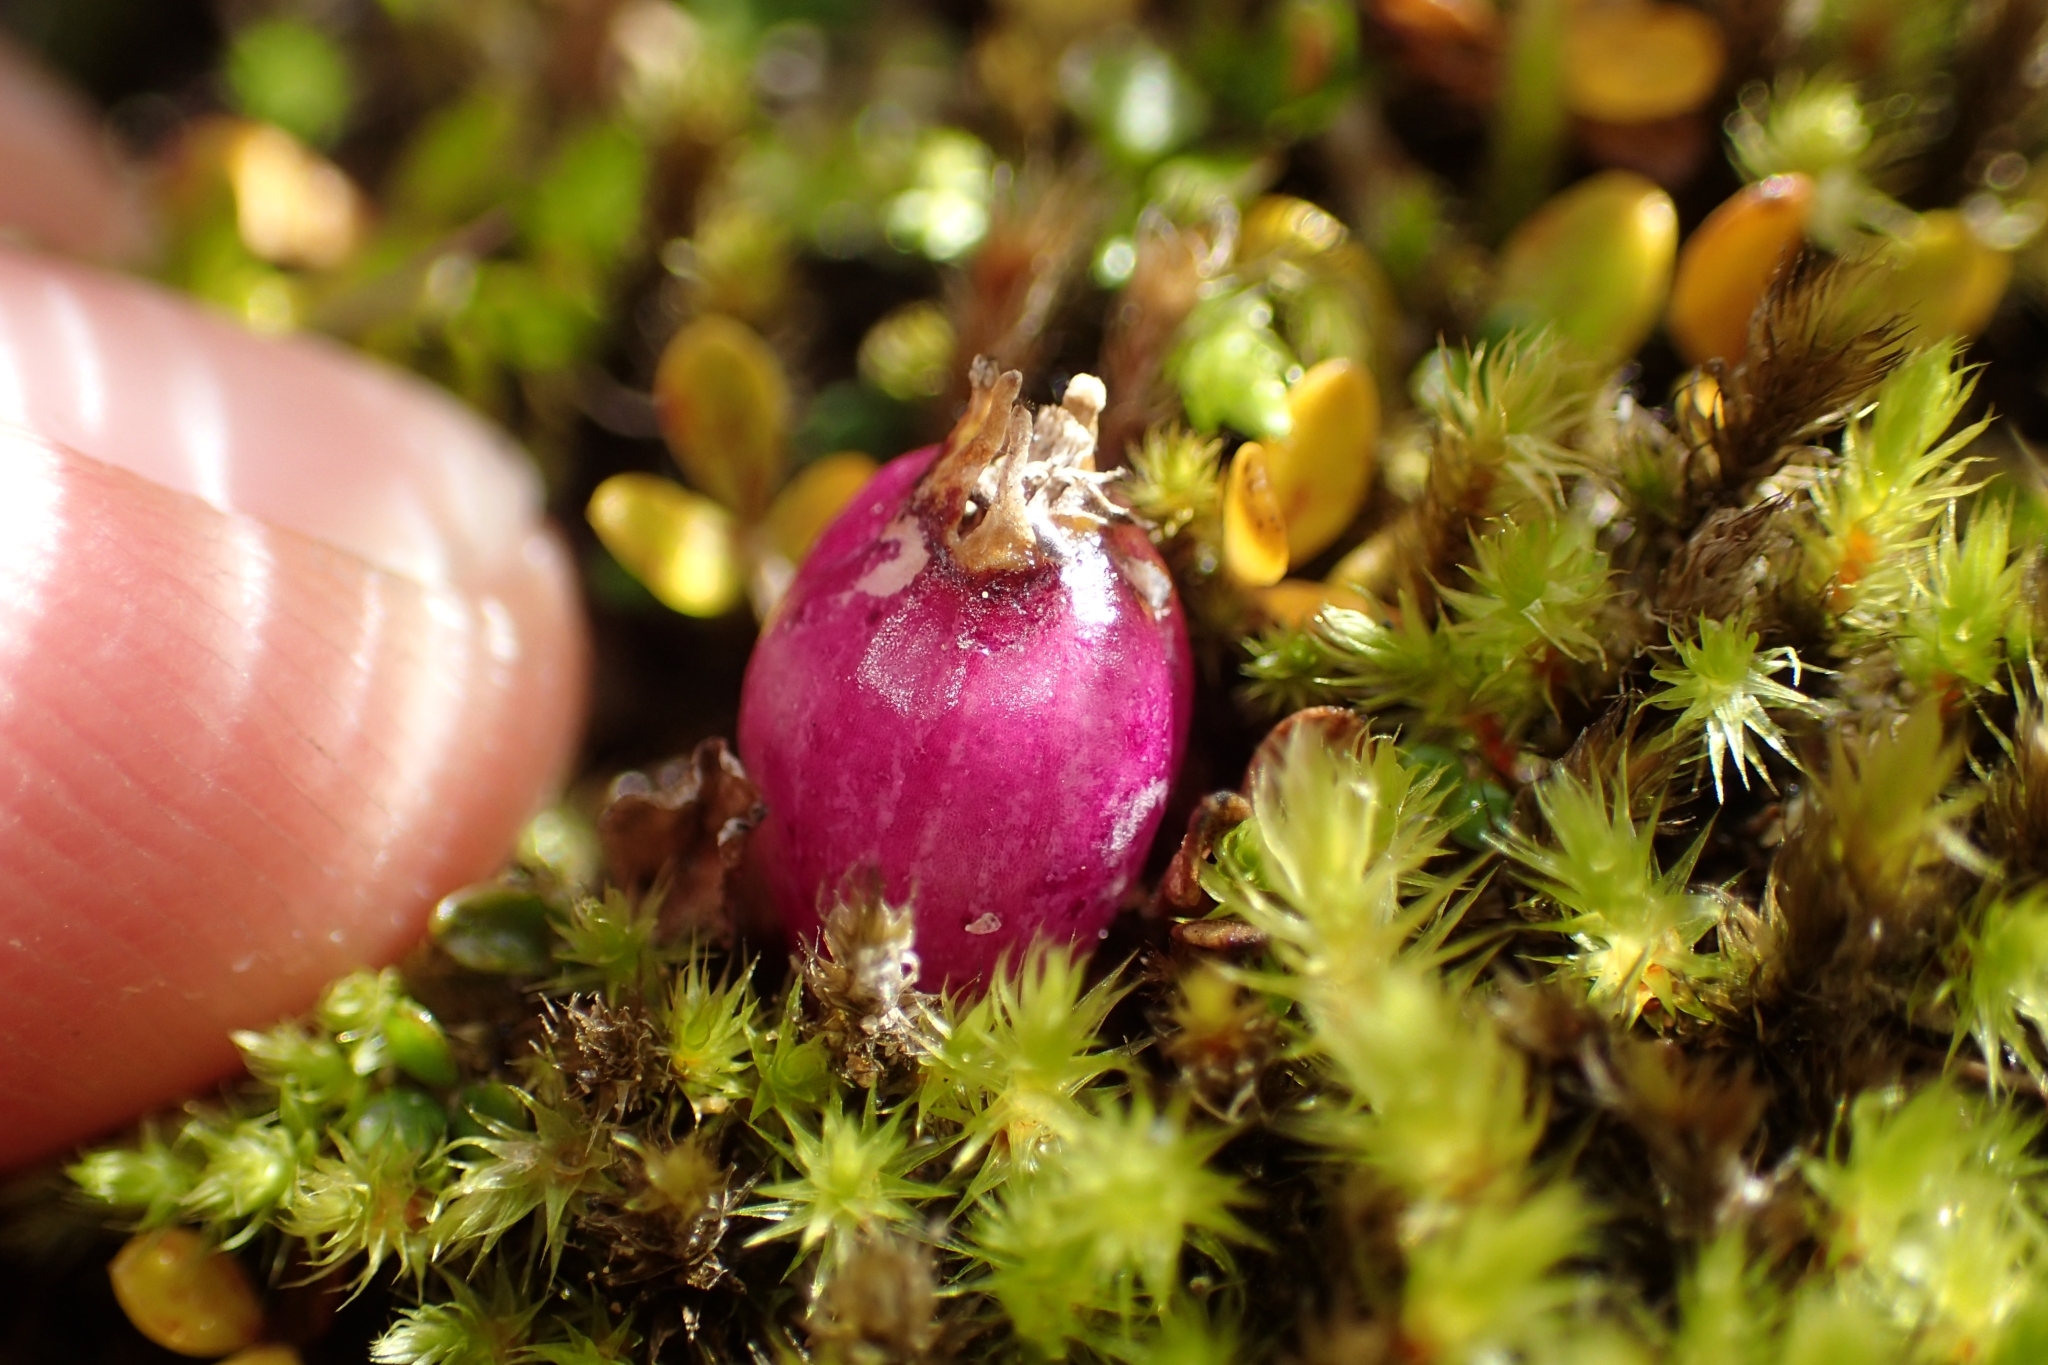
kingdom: Plantae
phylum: Tracheophyta
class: Magnoliopsida
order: Asterales
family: Campanulaceae
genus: Lobelia
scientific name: Lobelia angulata
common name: Lawn lobelia
